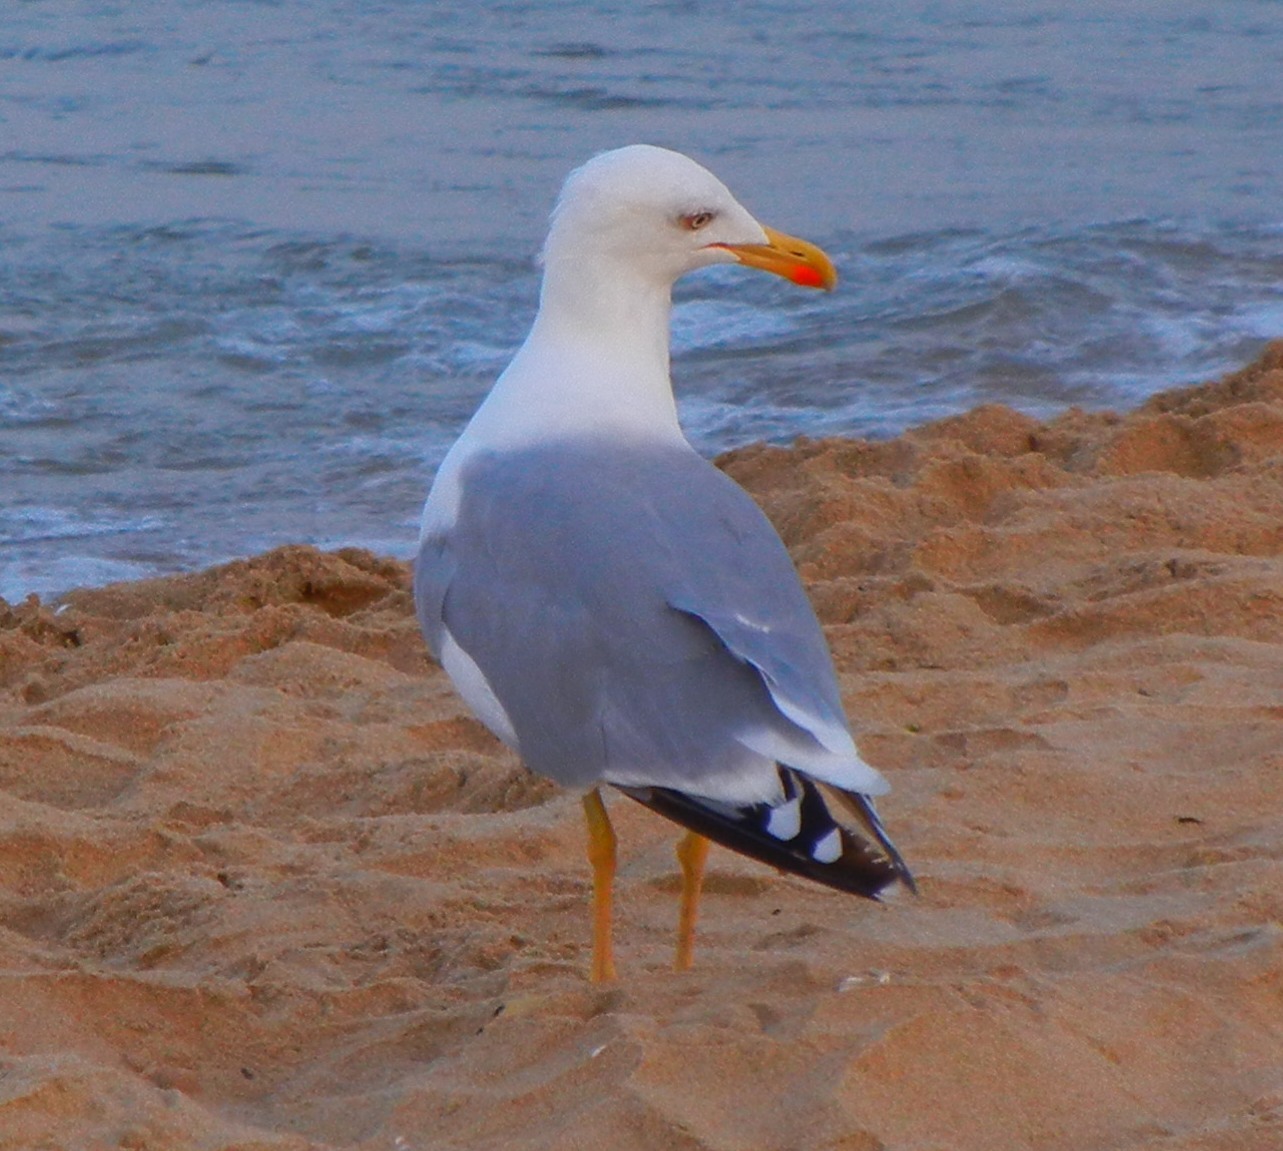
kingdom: Animalia
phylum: Chordata
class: Aves
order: Charadriiformes
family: Laridae
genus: Larus
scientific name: Larus michahellis
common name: Yellow-legged gull
